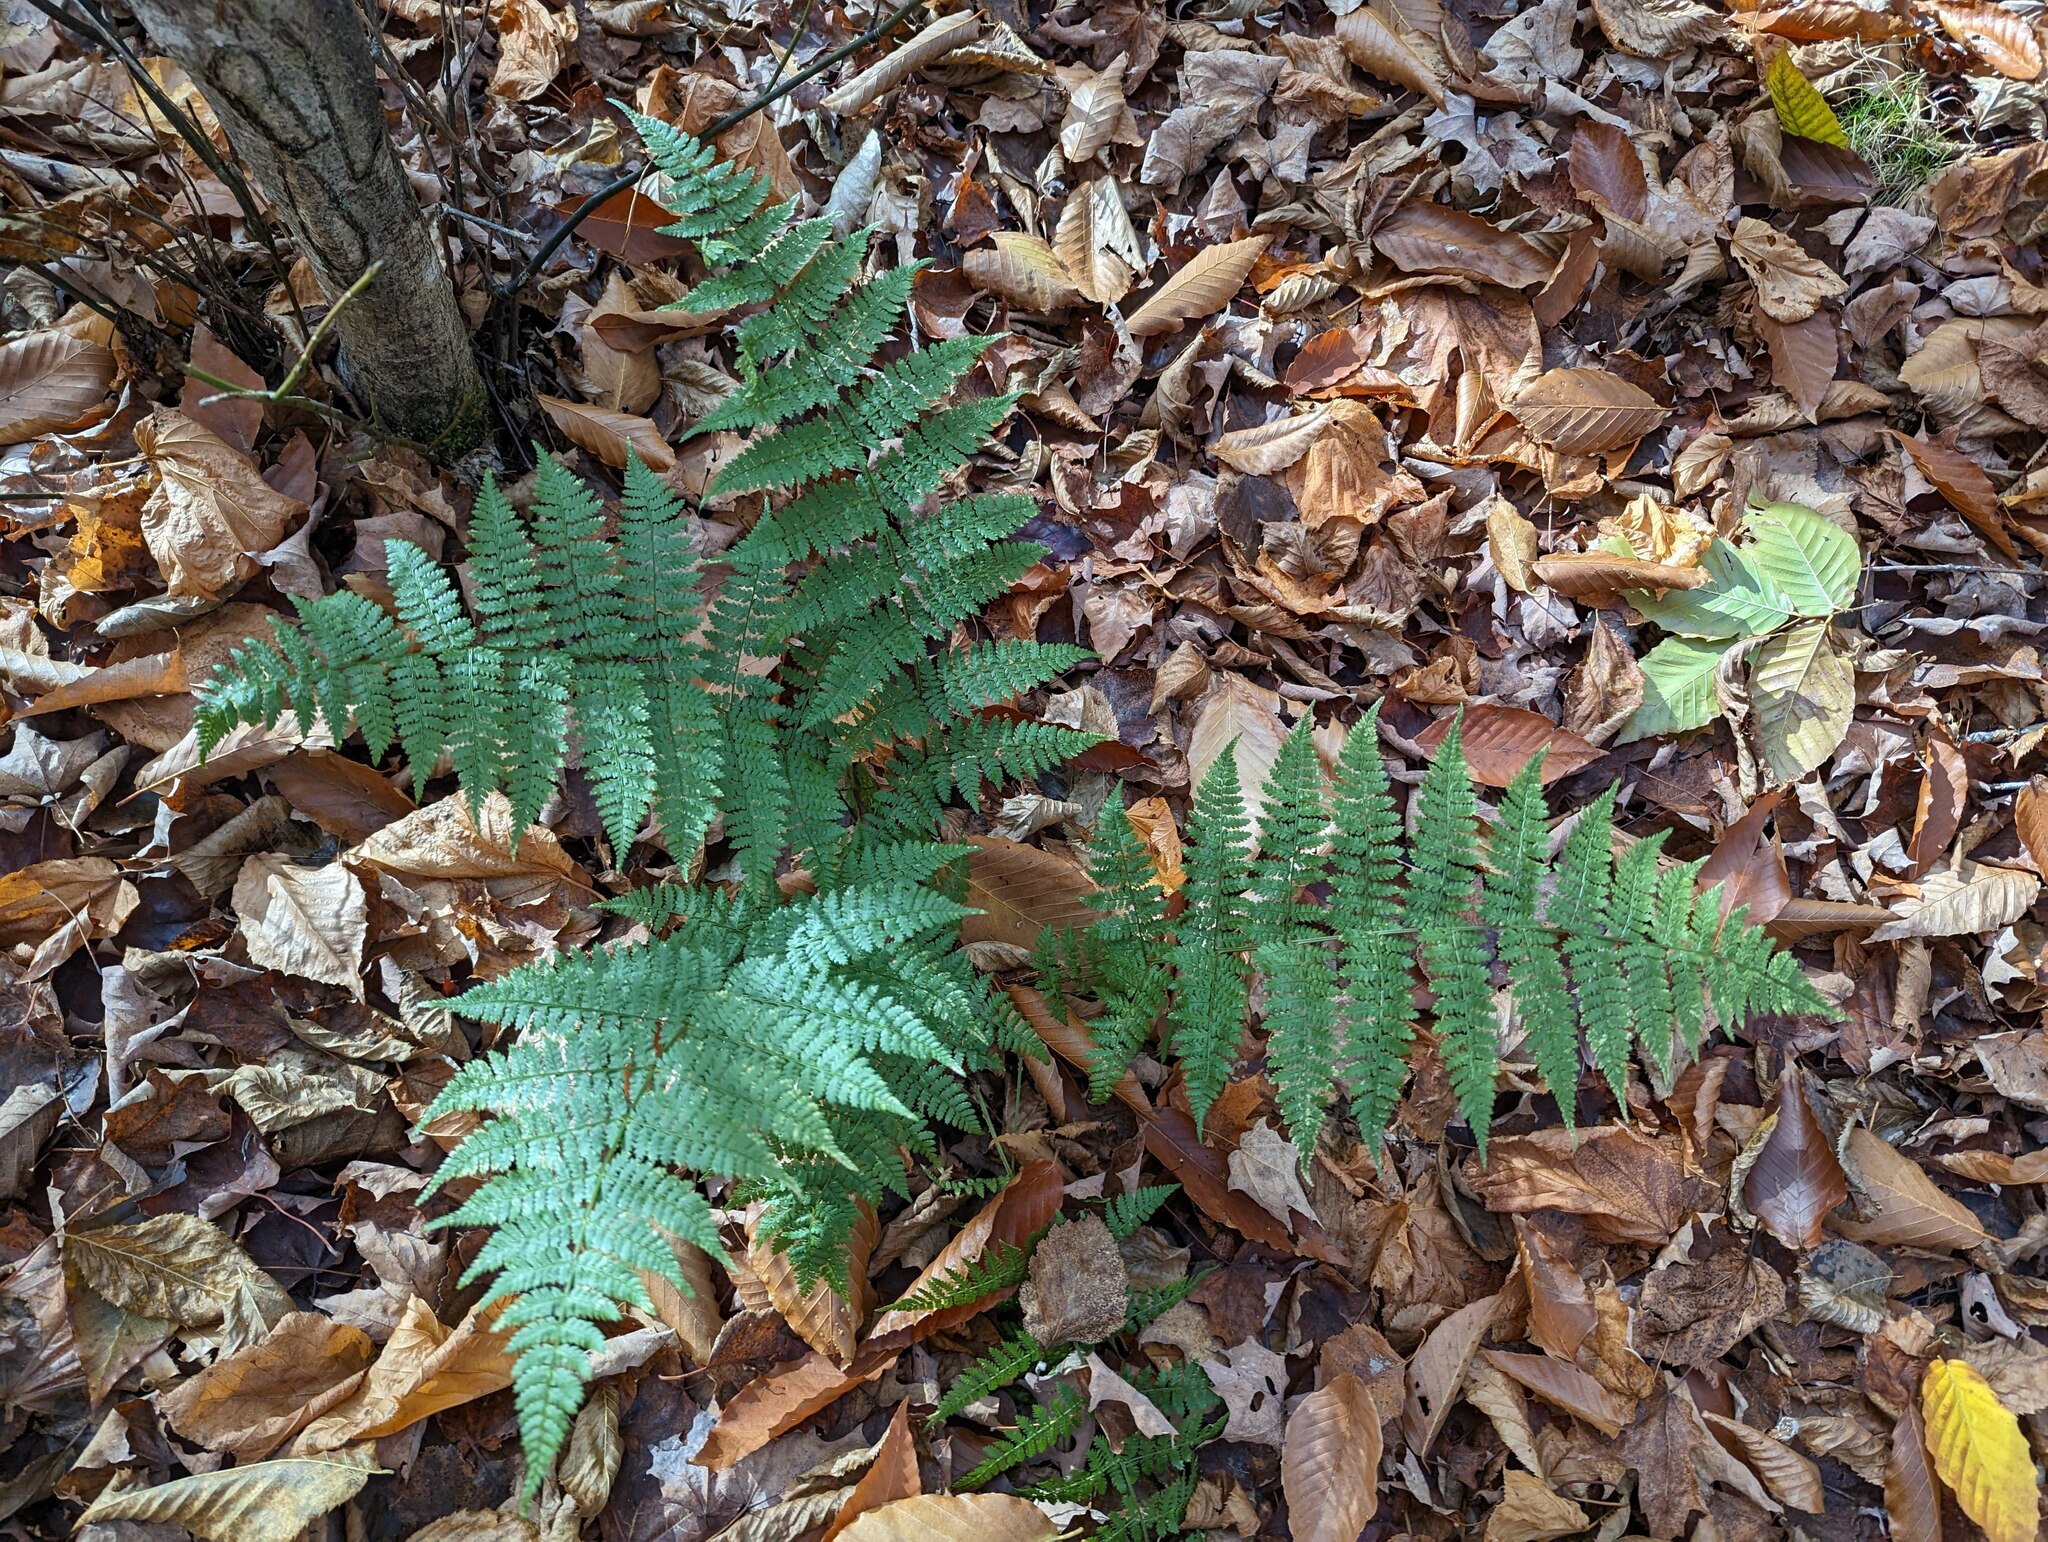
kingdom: Plantae
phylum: Tracheophyta
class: Polypodiopsida
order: Polypodiales
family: Dryopteridaceae
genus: Dryopteris
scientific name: Dryopteris intermedia
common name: Evergreen wood fern
